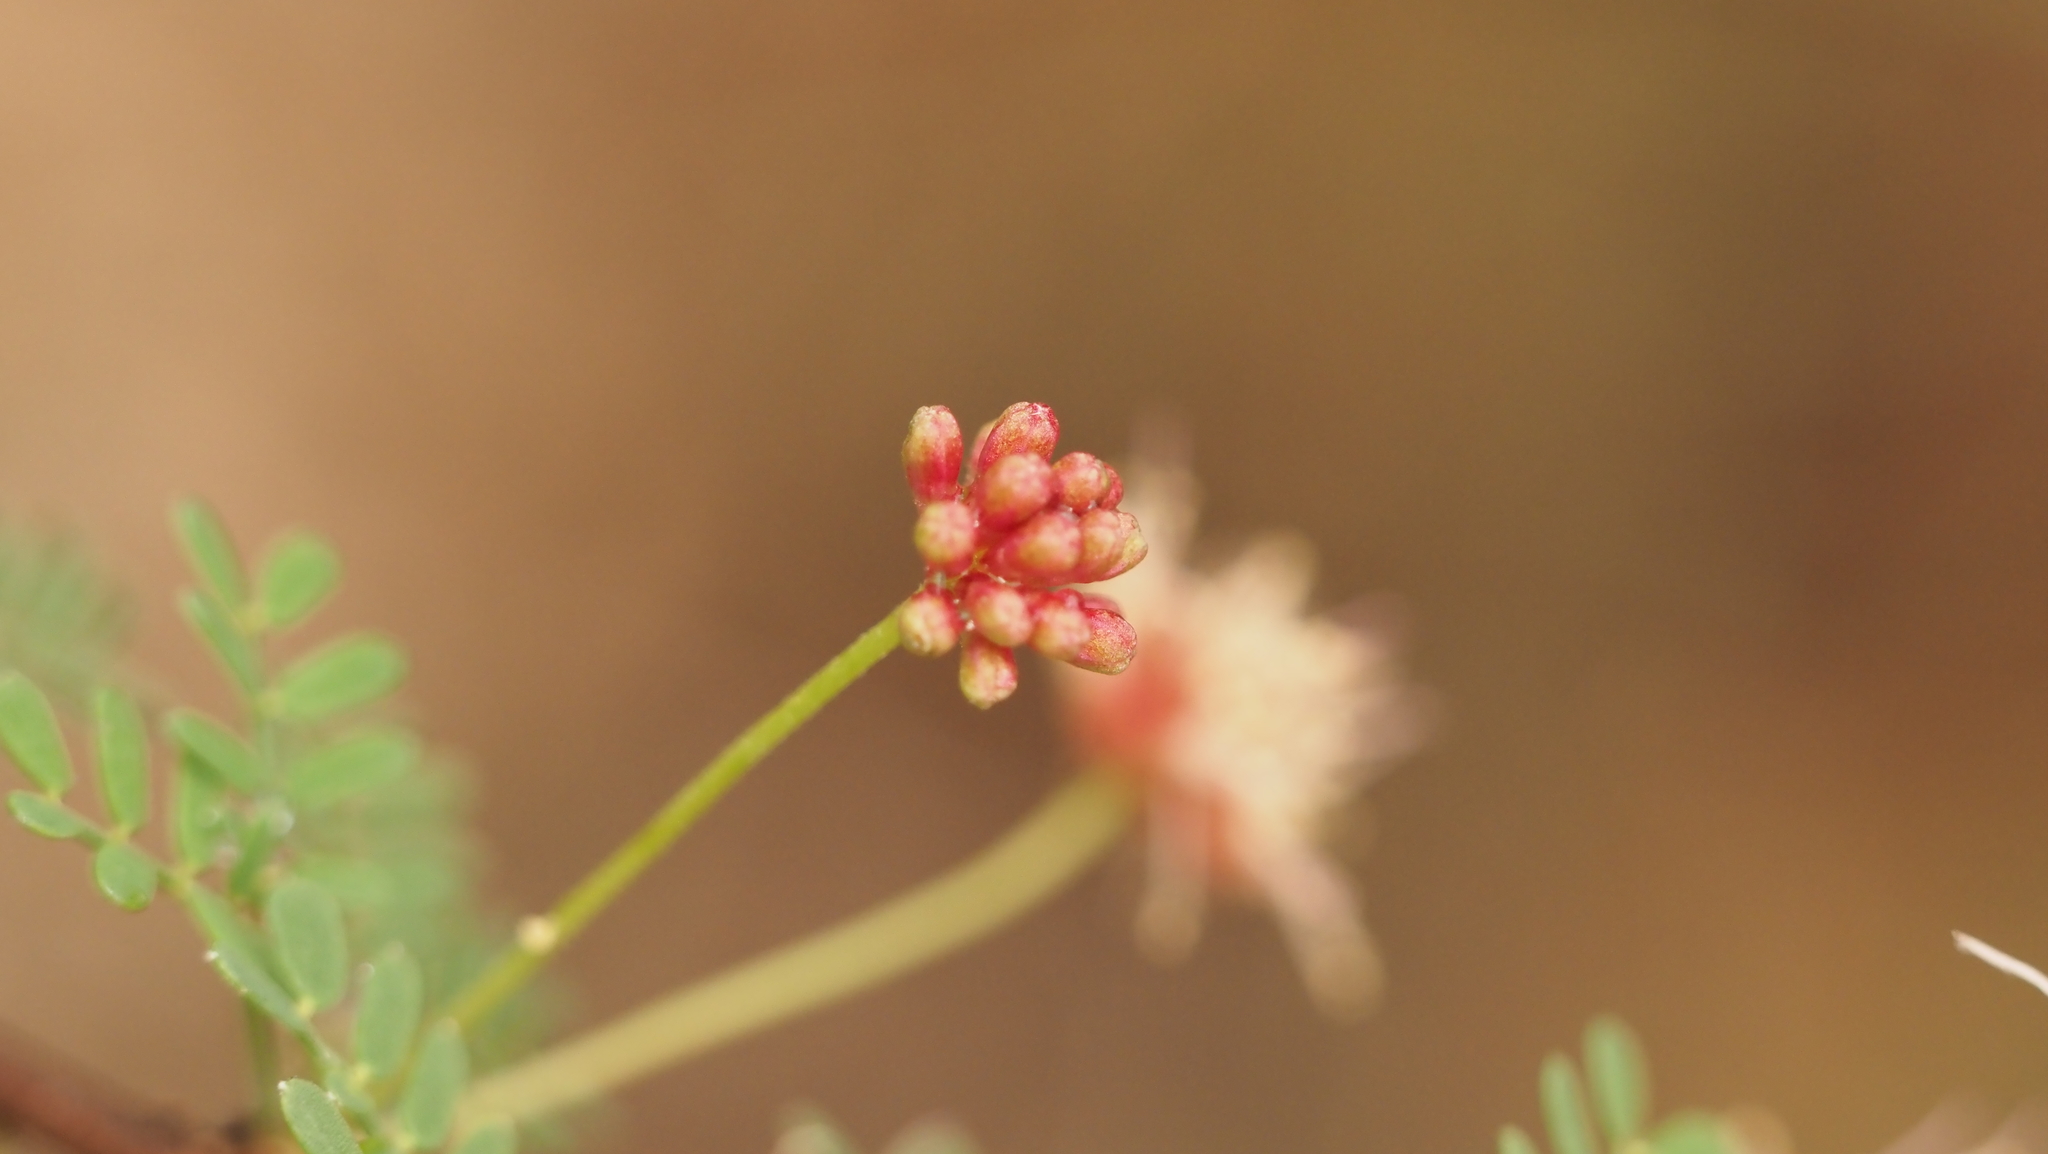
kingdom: Plantae
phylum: Tracheophyta
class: Magnoliopsida
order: Fabales
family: Fabaceae
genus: Mimosa
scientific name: Mimosa texana
